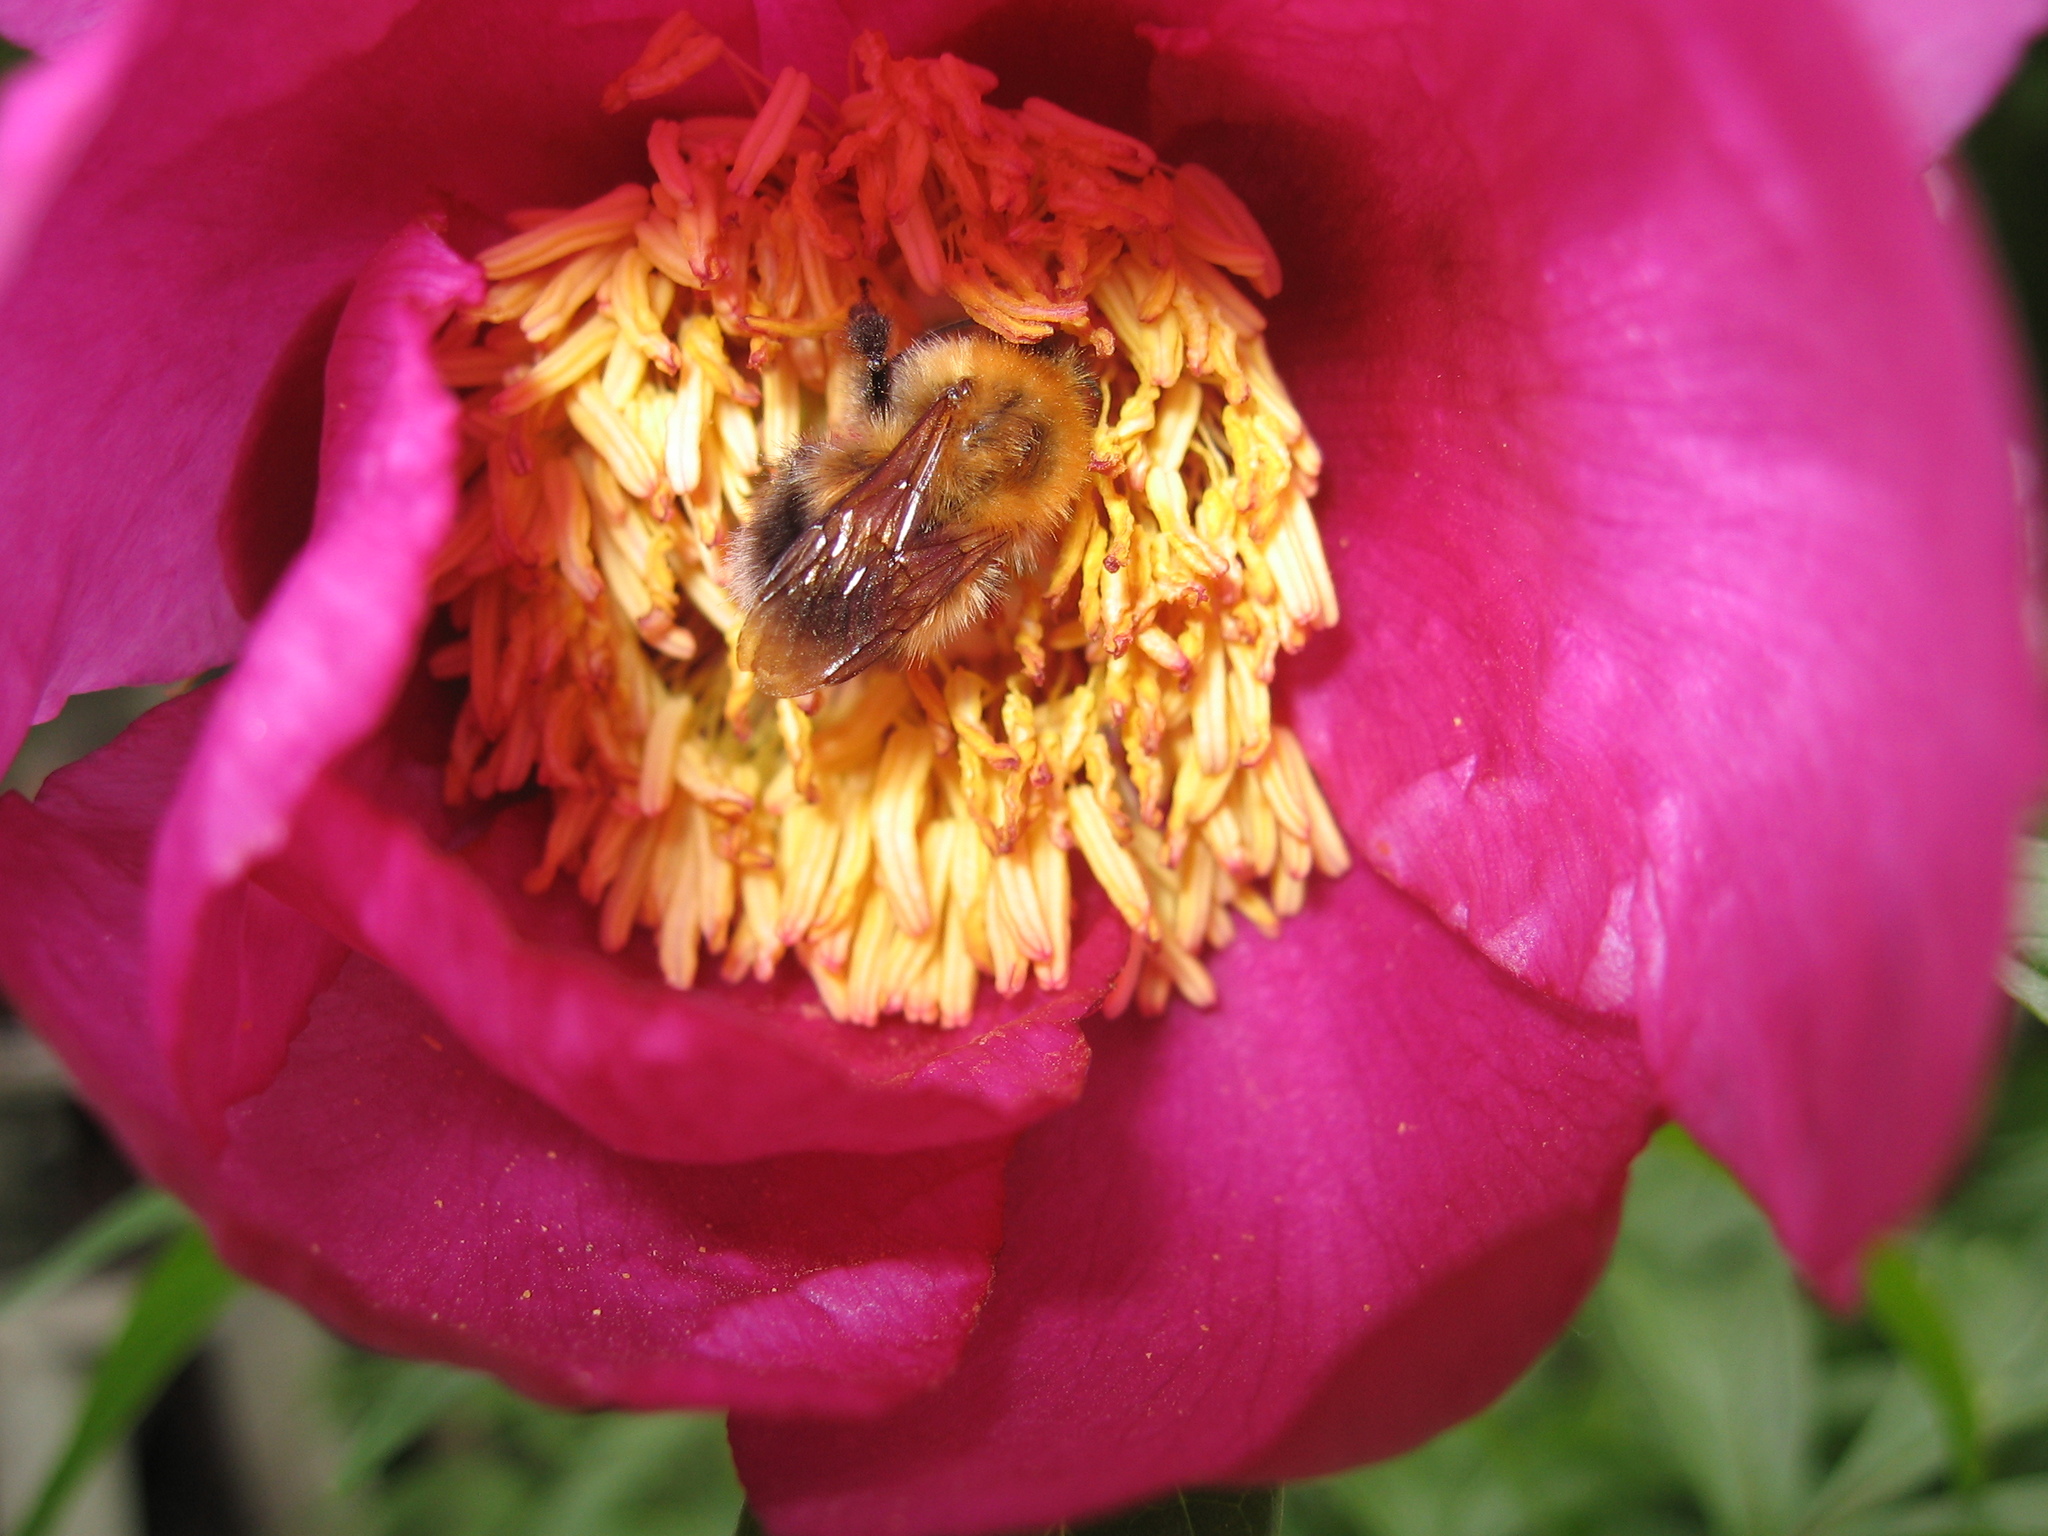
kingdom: Animalia
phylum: Arthropoda
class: Insecta
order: Hymenoptera
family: Apidae
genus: Bombus
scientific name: Bombus hypnorum
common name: New garden bumblebee
